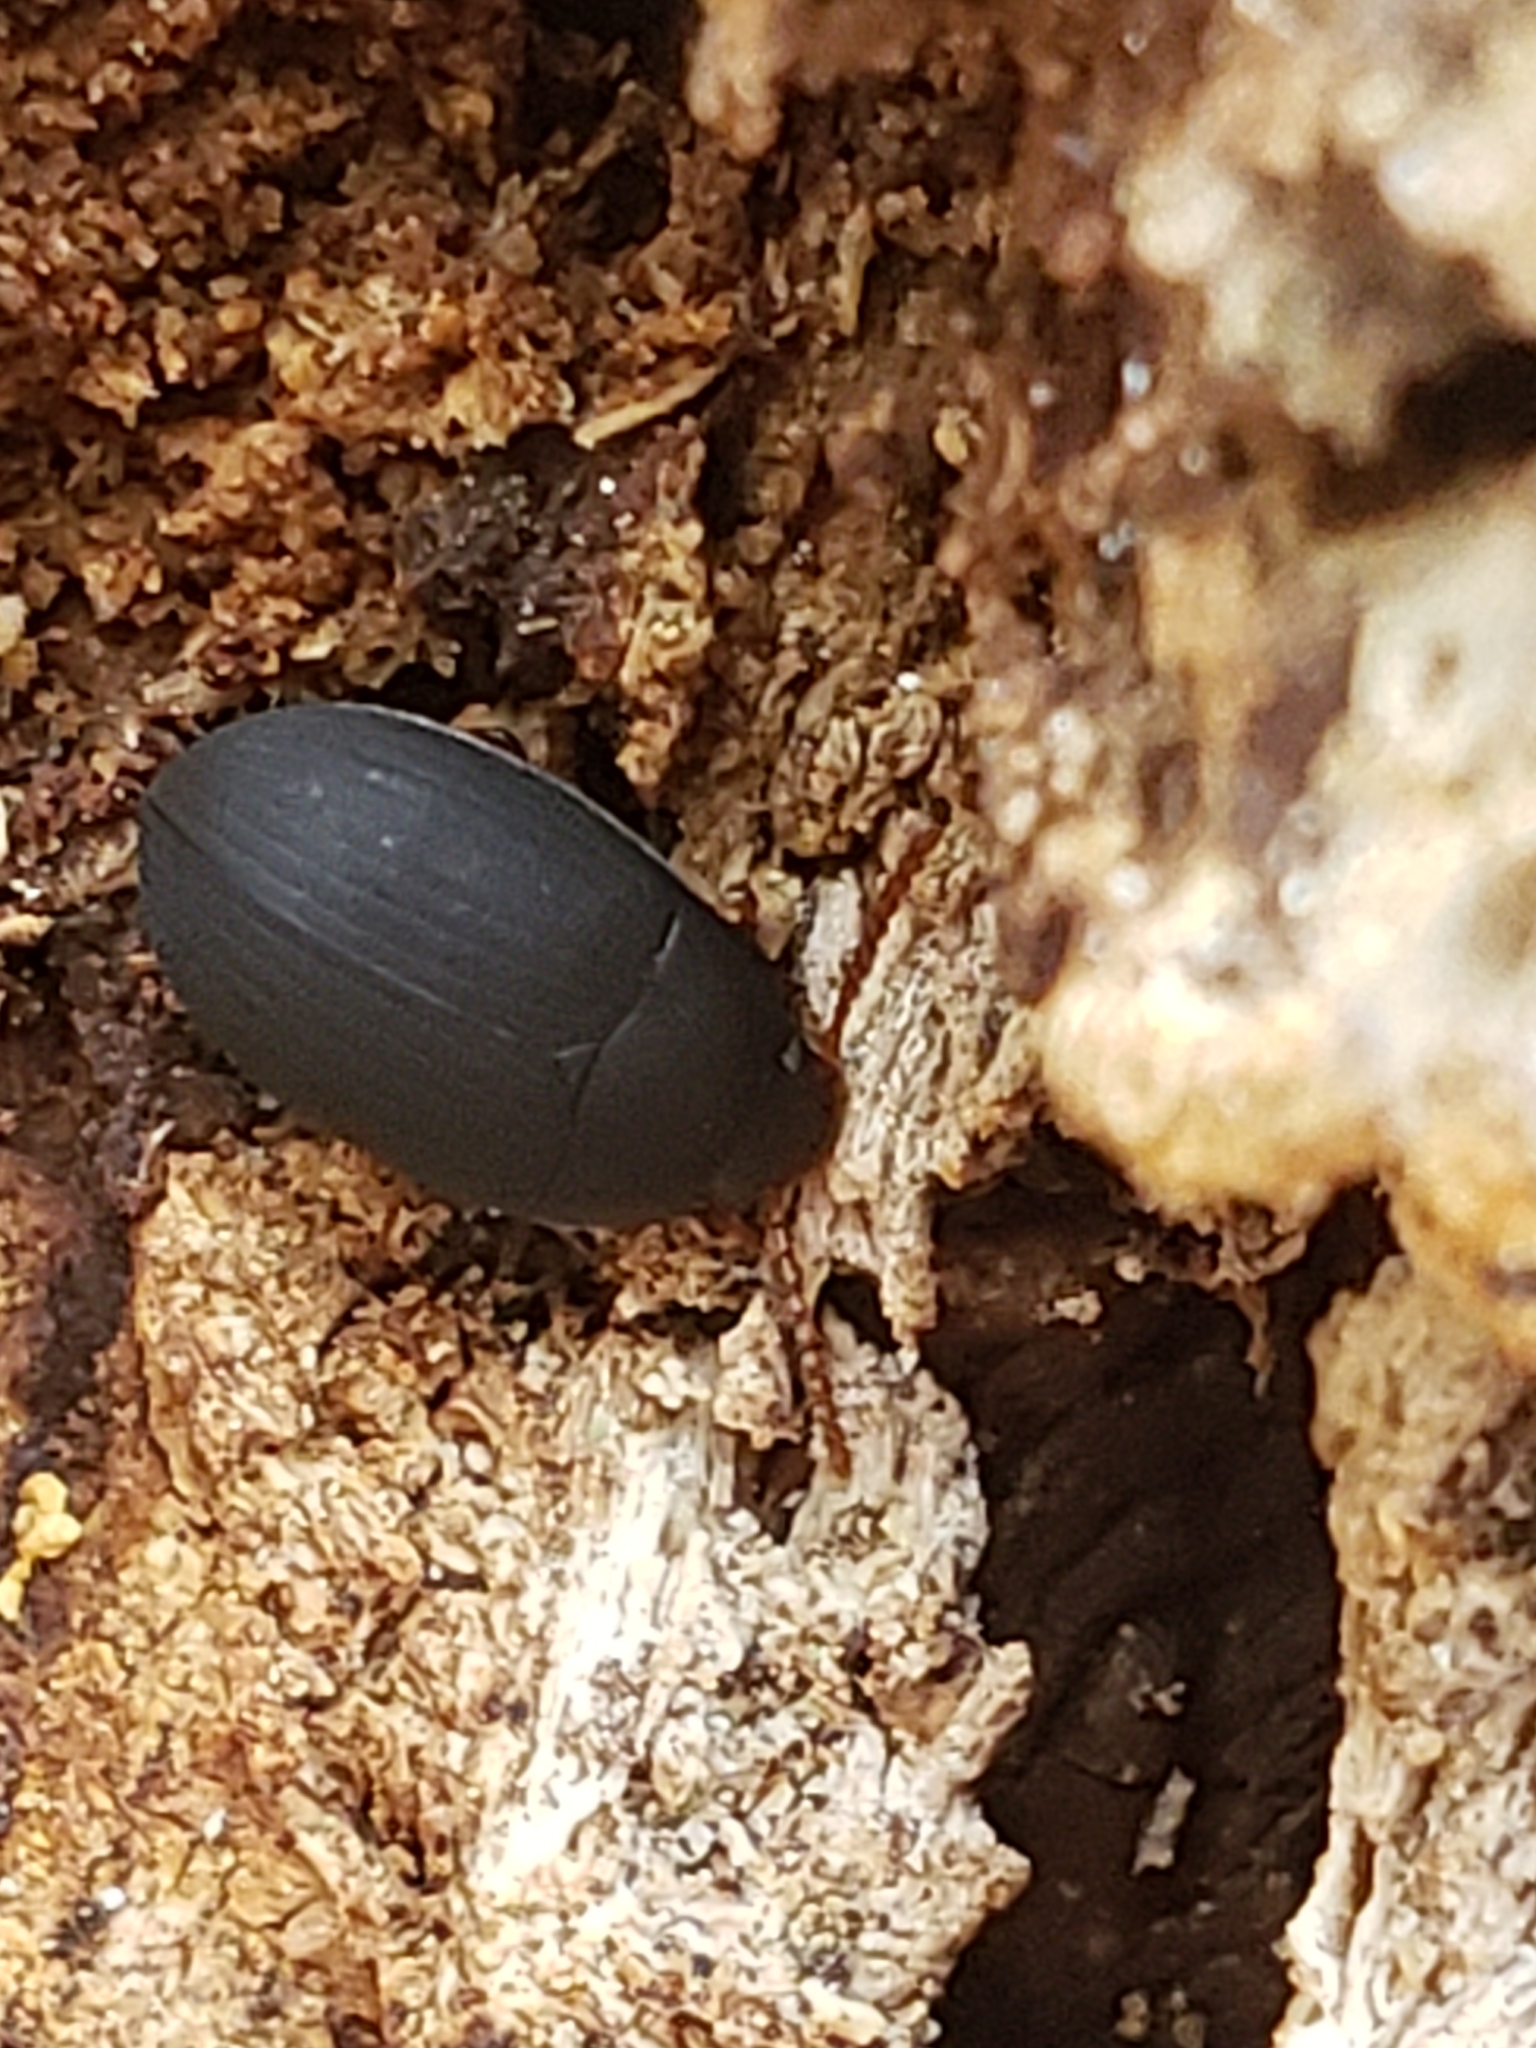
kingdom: Animalia
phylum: Arthropoda
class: Insecta
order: Coleoptera
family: Tenebrionidae
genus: Platydema
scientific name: Platydema ruficornis
